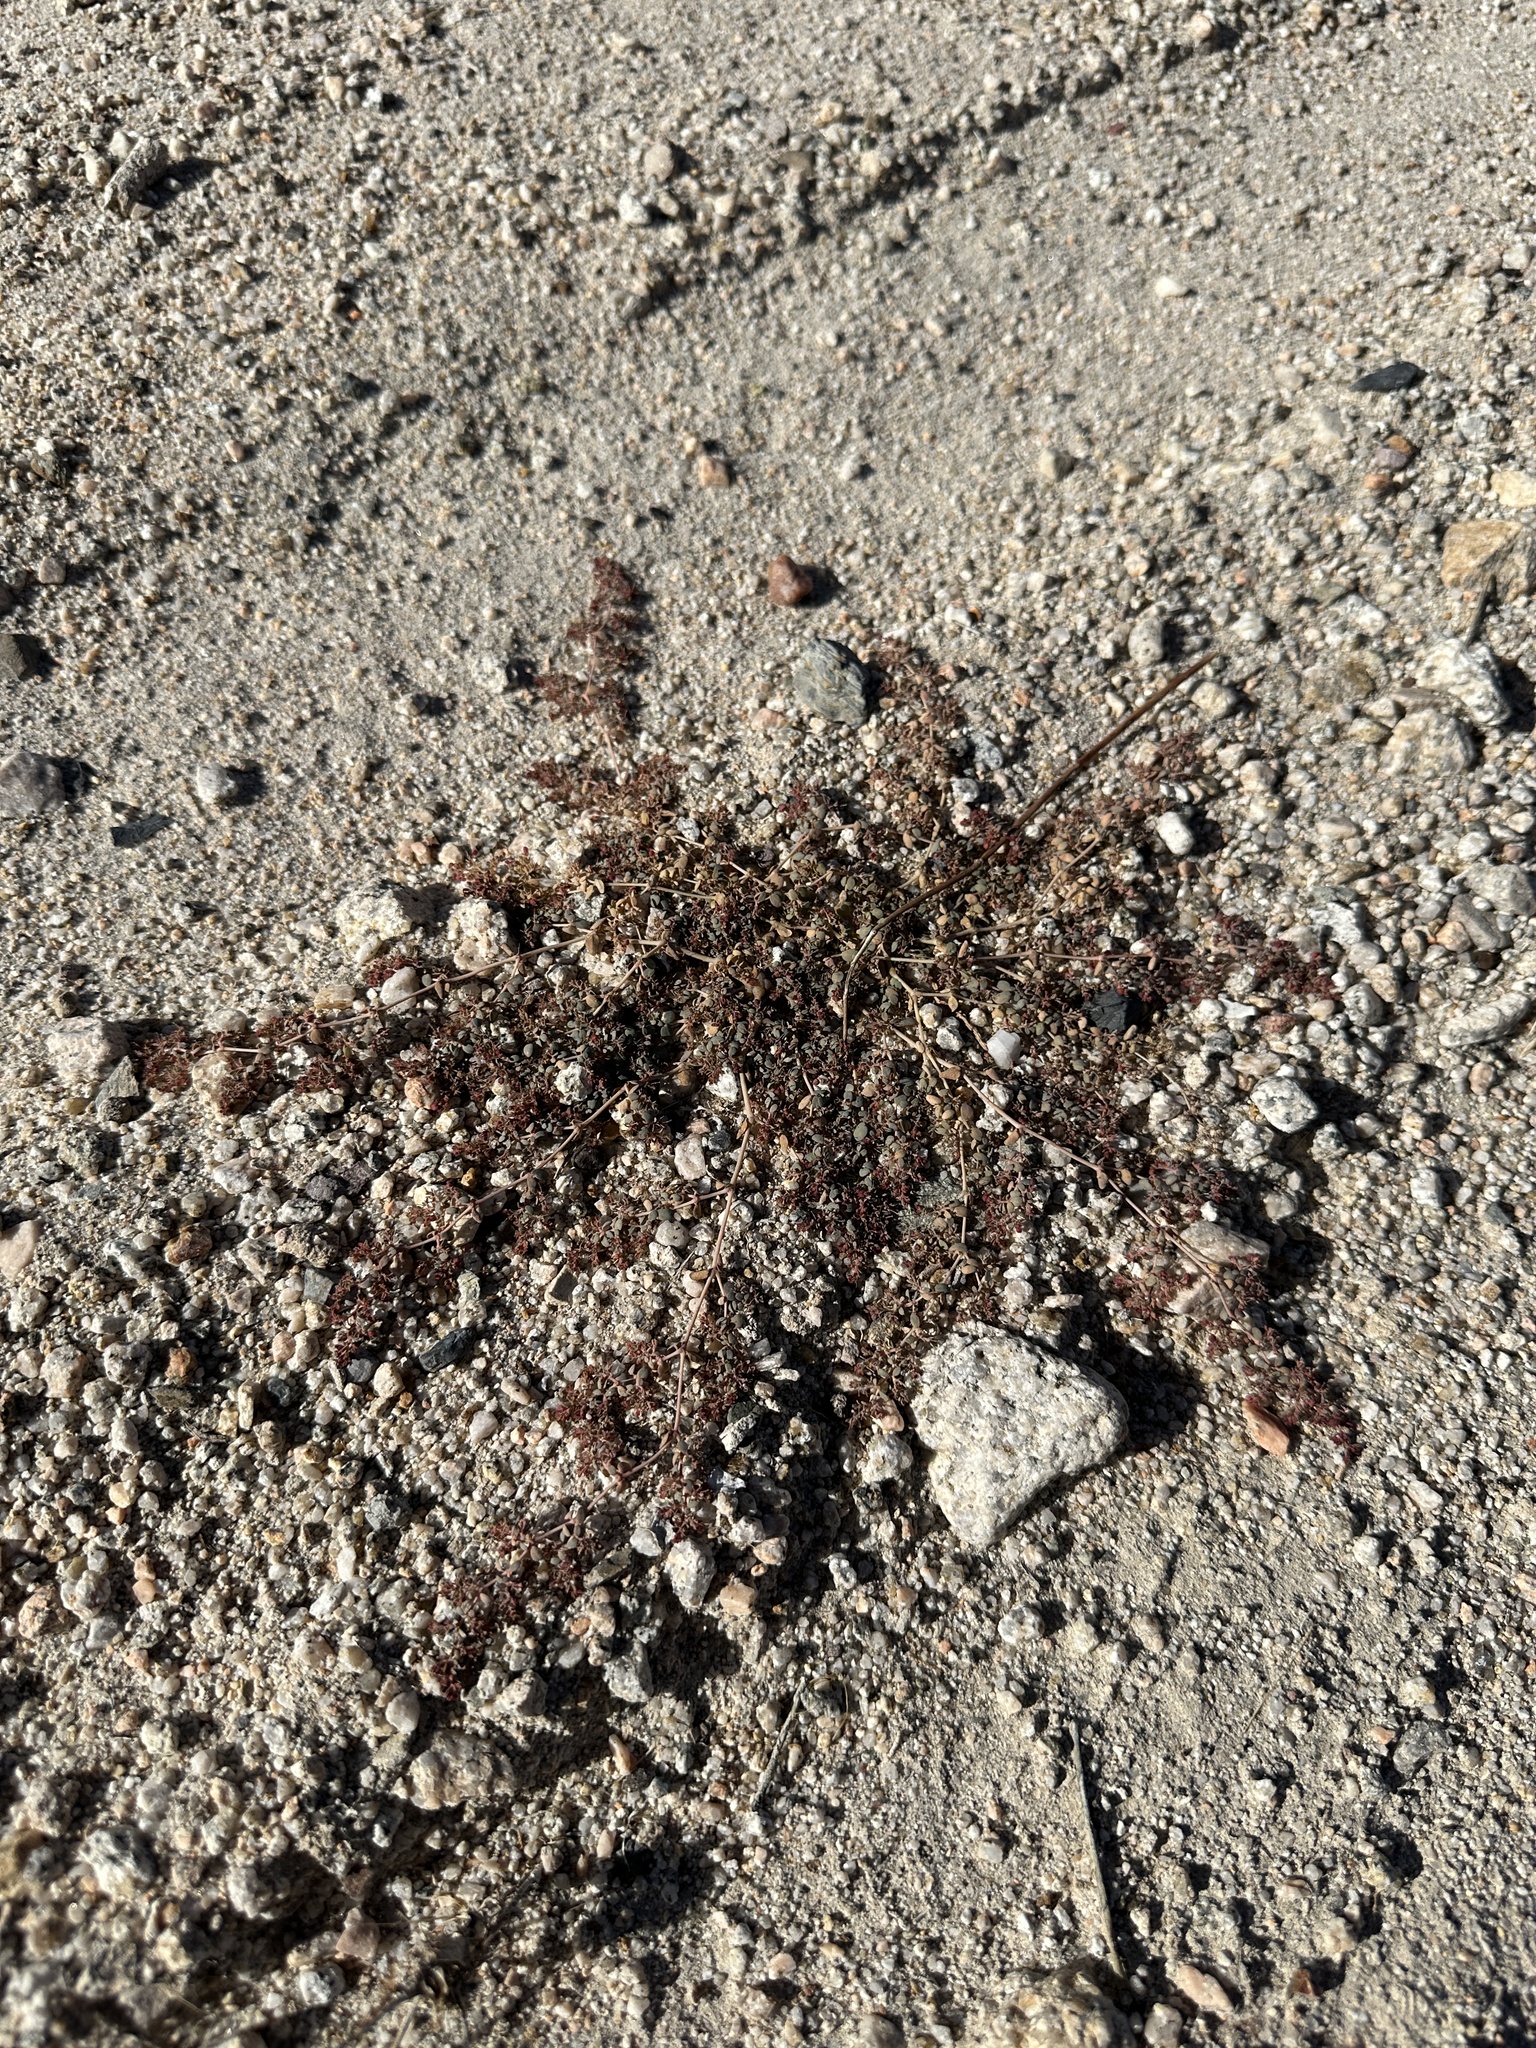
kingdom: Plantae
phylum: Tracheophyta
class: Magnoliopsida
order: Malpighiales
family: Euphorbiaceae
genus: Euphorbia
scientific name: Euphorbia micromera
